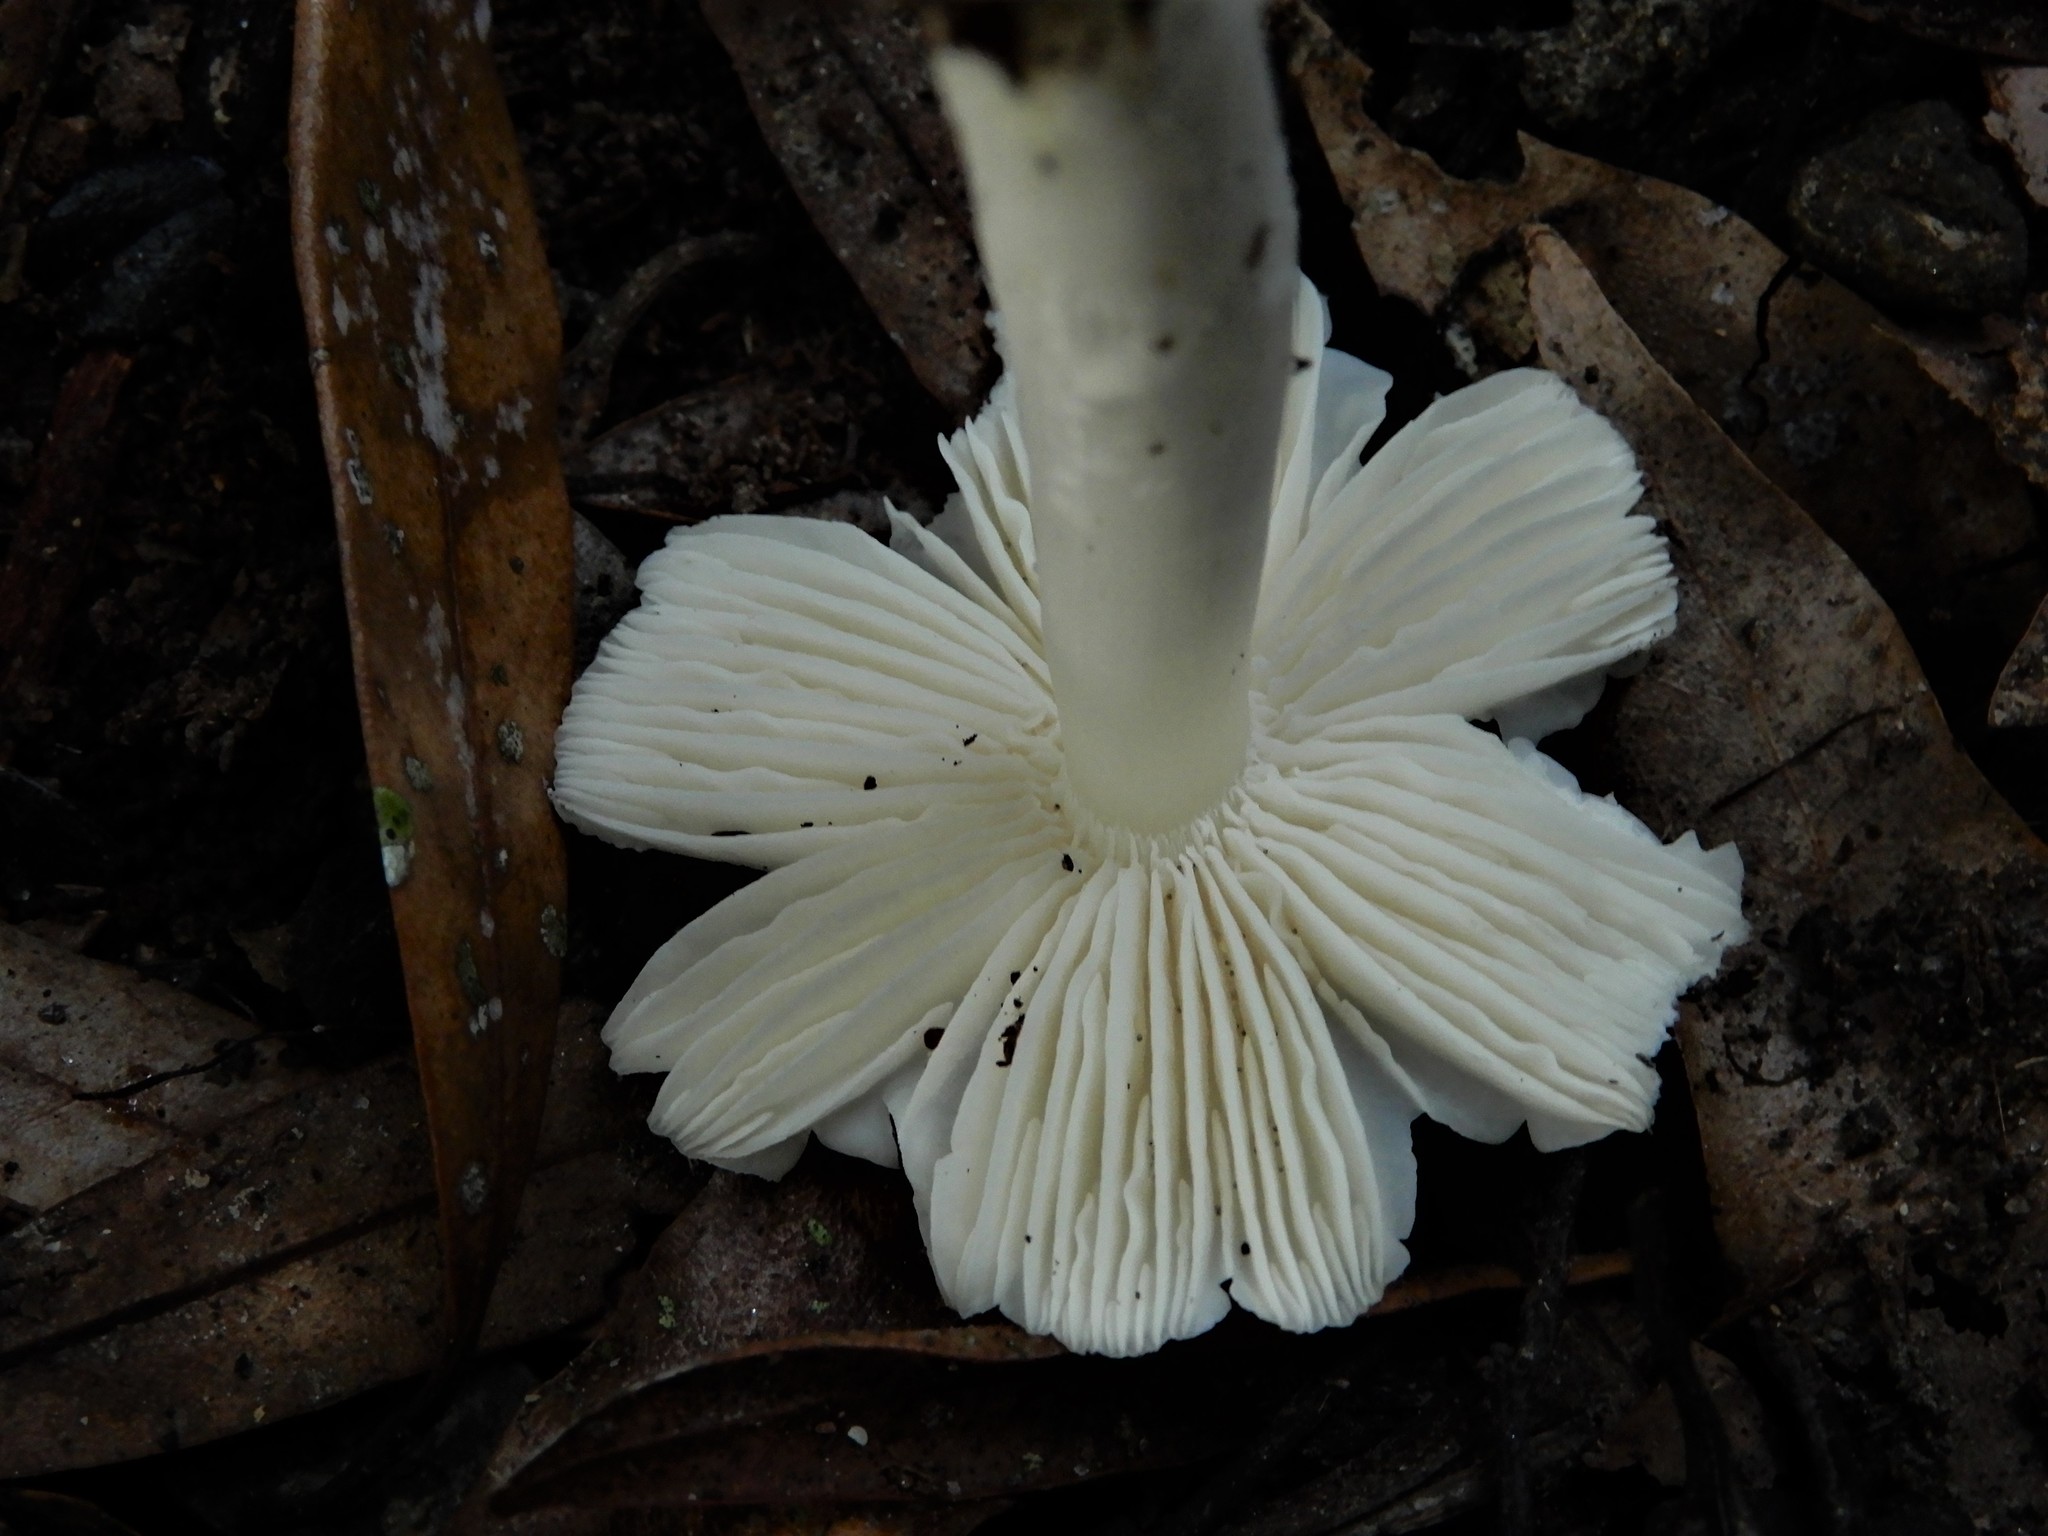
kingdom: Fungi
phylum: Basidiomycota
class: Agaricomycetes
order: Agaricales
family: Hygrophoraceae
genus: Humidicutis
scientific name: Humidicutis mavis
